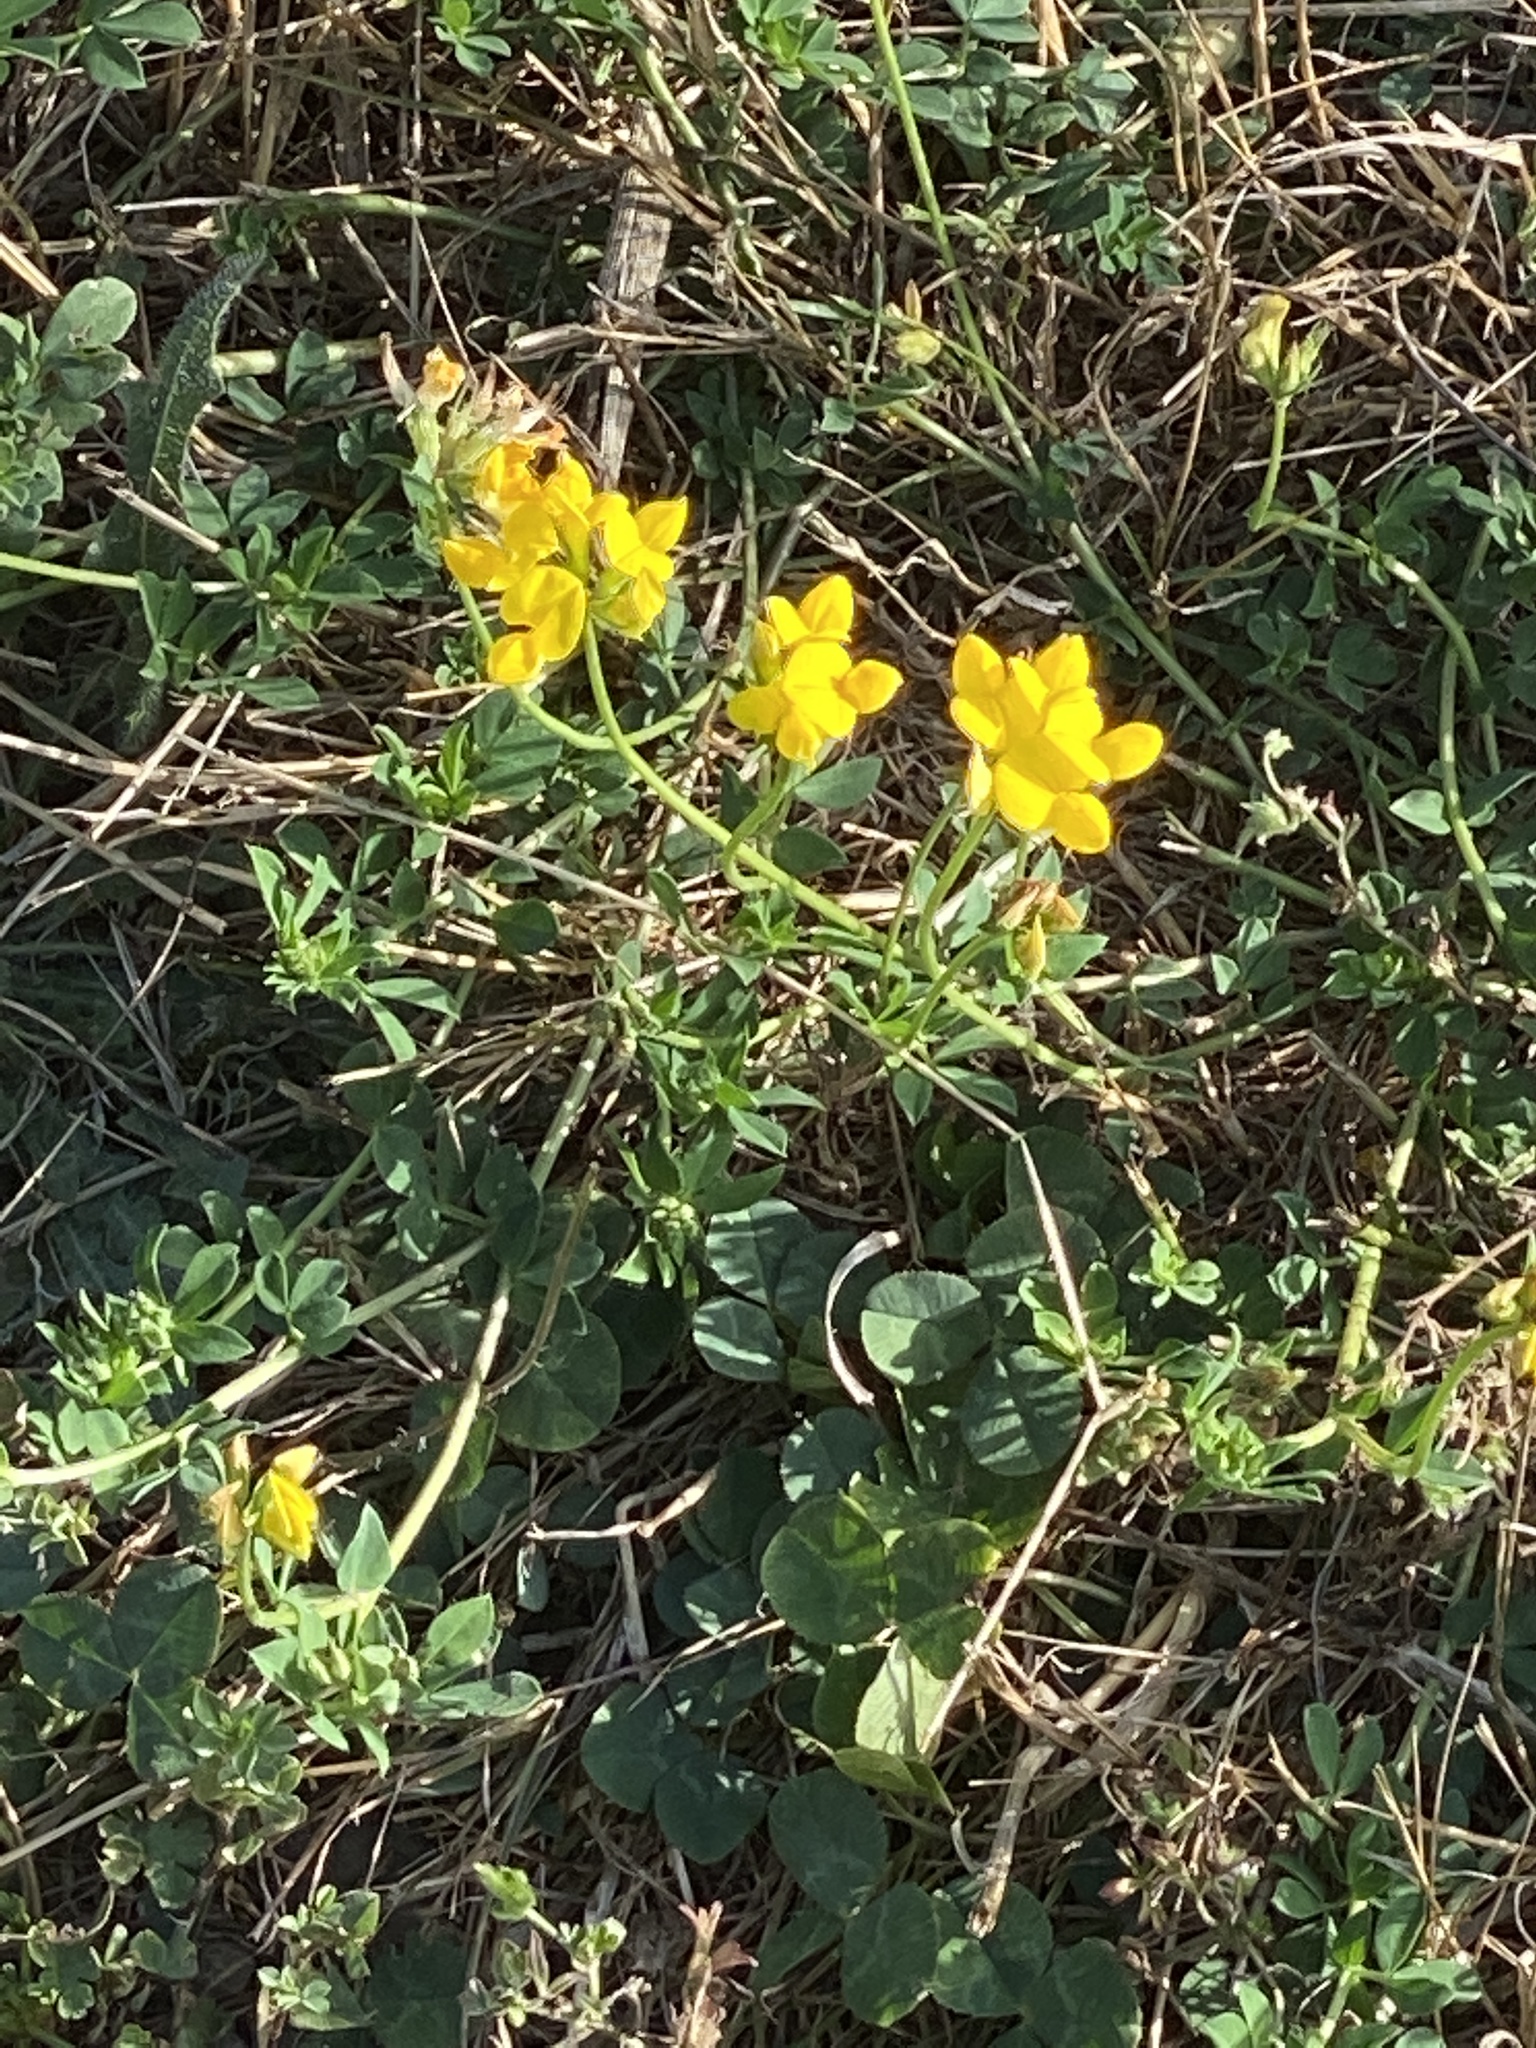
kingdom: Plantae
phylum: Tracheophyta
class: Magnoliopsida
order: Fabales
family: Fabaceae
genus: Lotus
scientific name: Lotus corniculatus
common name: Common bird's-foot-trefoil
